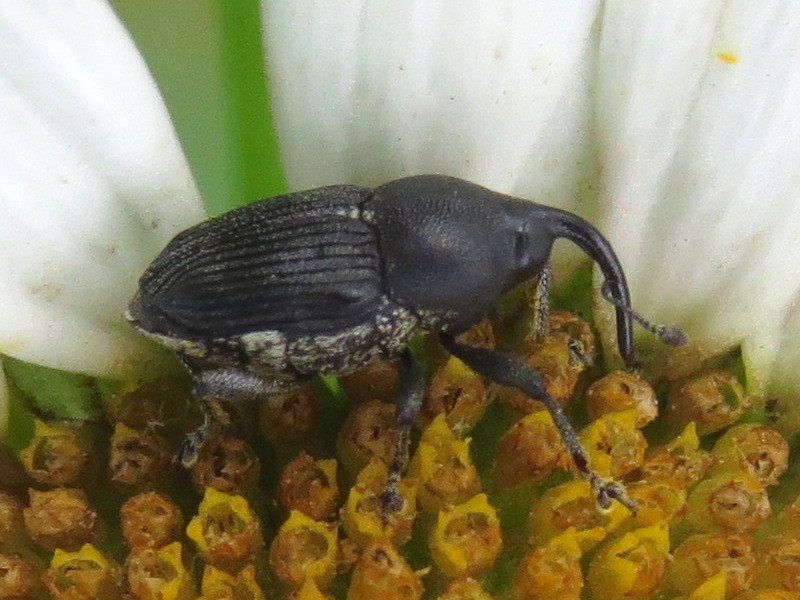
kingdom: Animalia
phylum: Arthropoda
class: Insecta
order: Coleoptera
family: Curculionidae
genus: Odontocorynus
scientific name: Odontocorynus salebrosus
